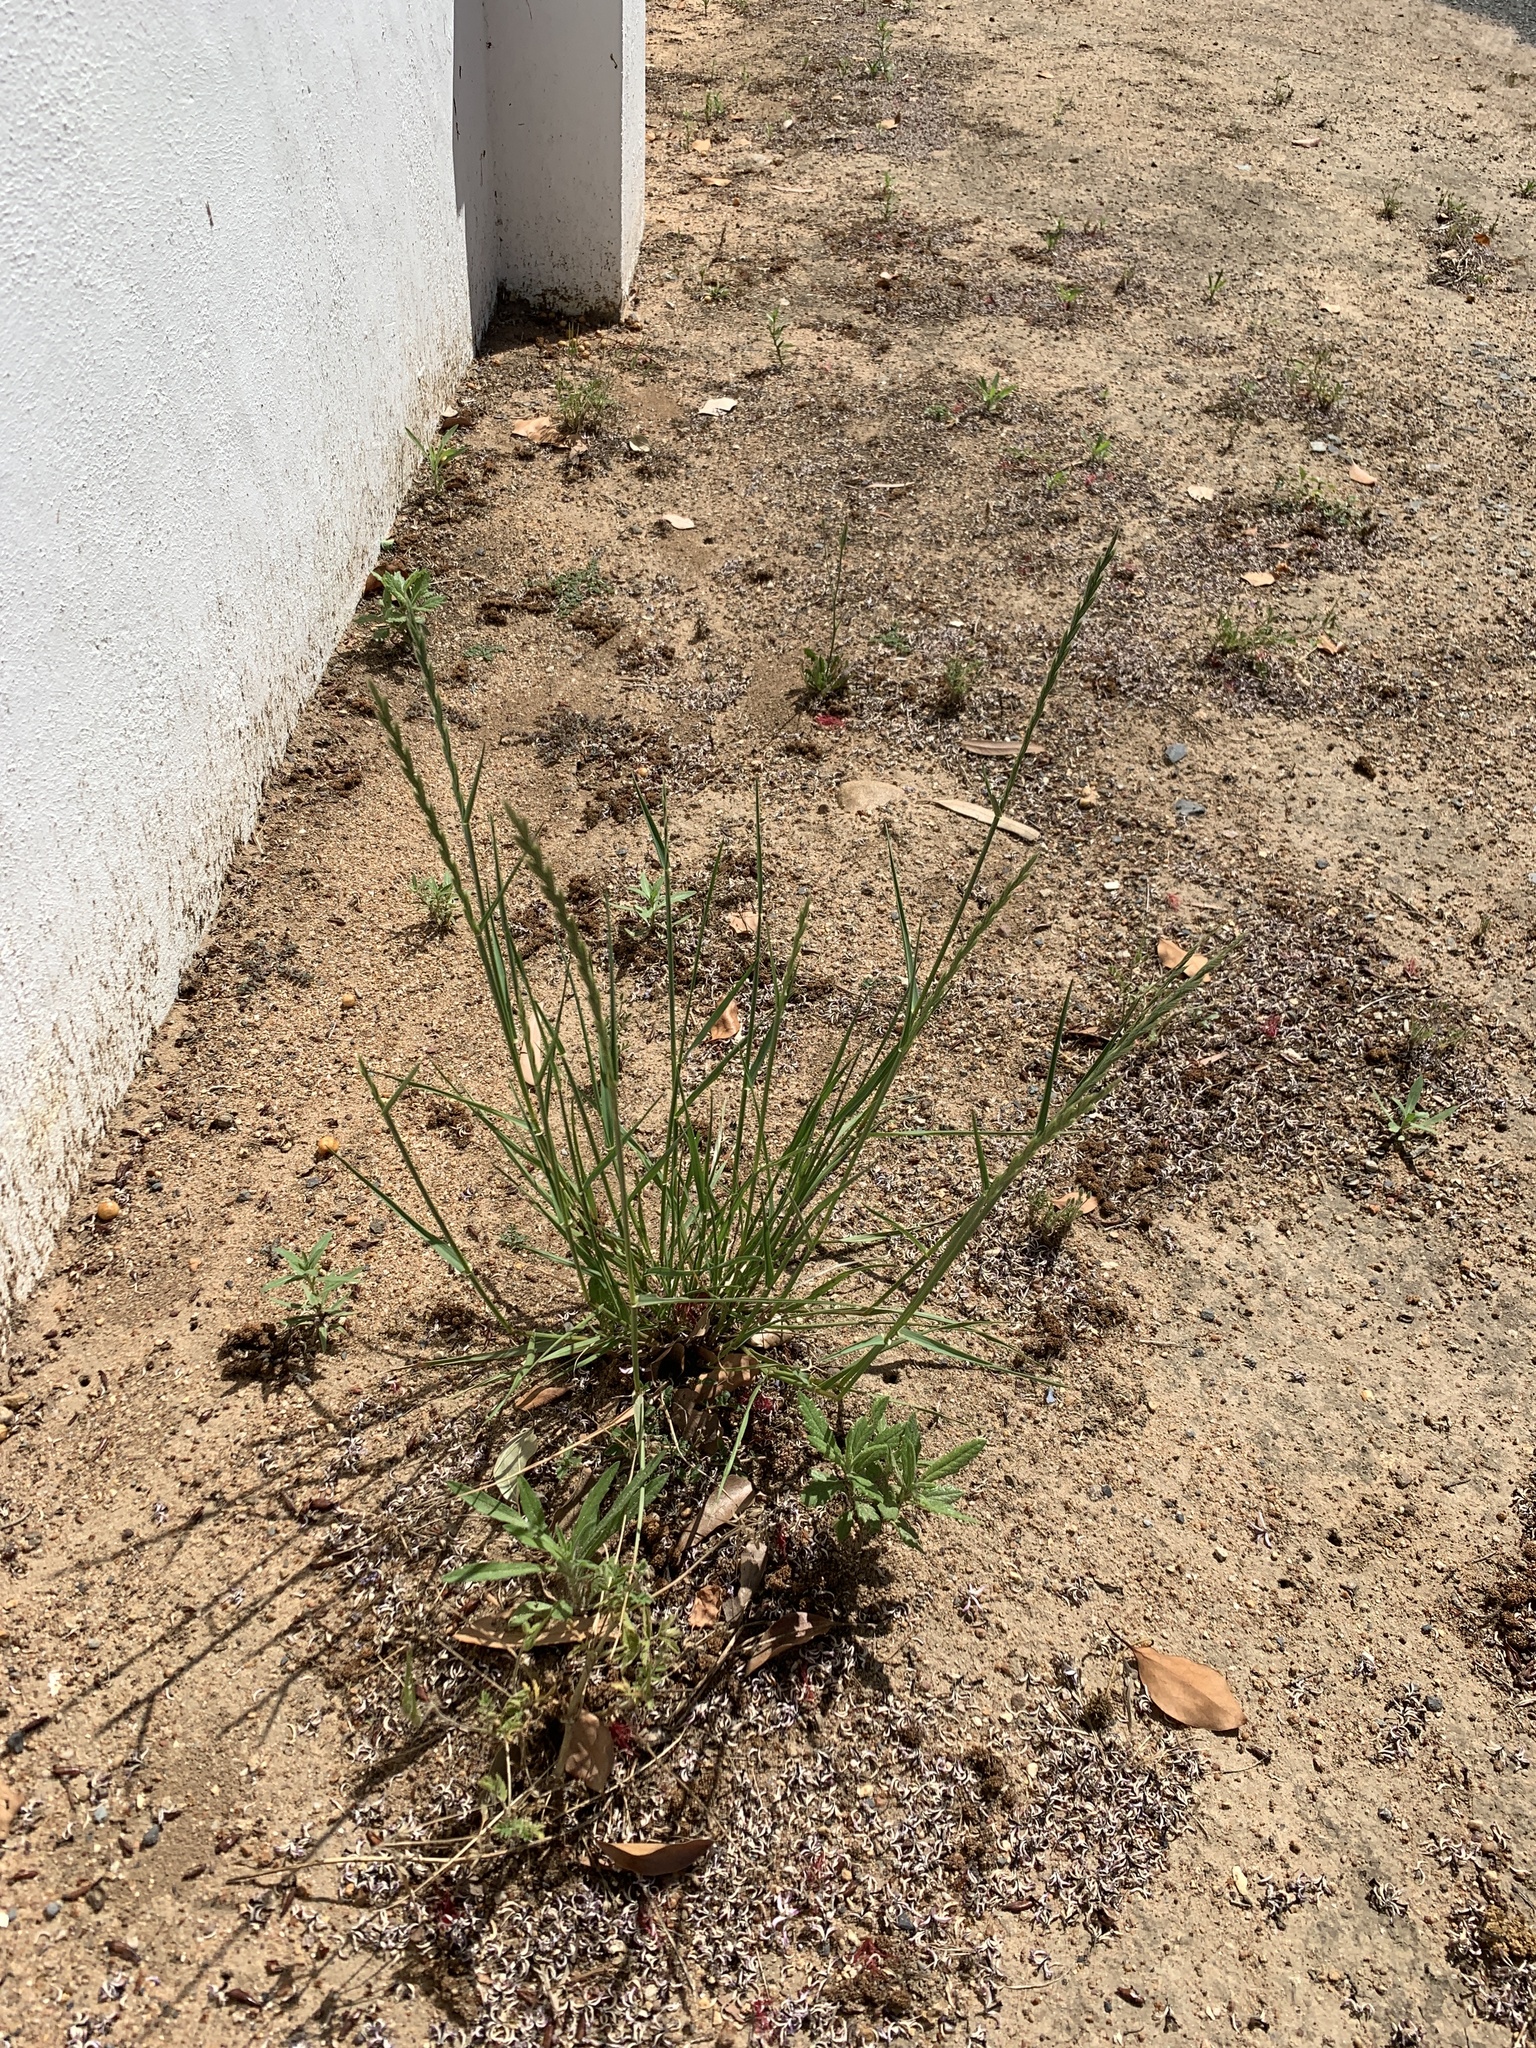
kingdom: Plantae
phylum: Tracheophyta
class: Liliopsida
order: Poales
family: Poaceae
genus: Lolium
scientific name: Lolium multiflorum
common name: Annual ryegrass
